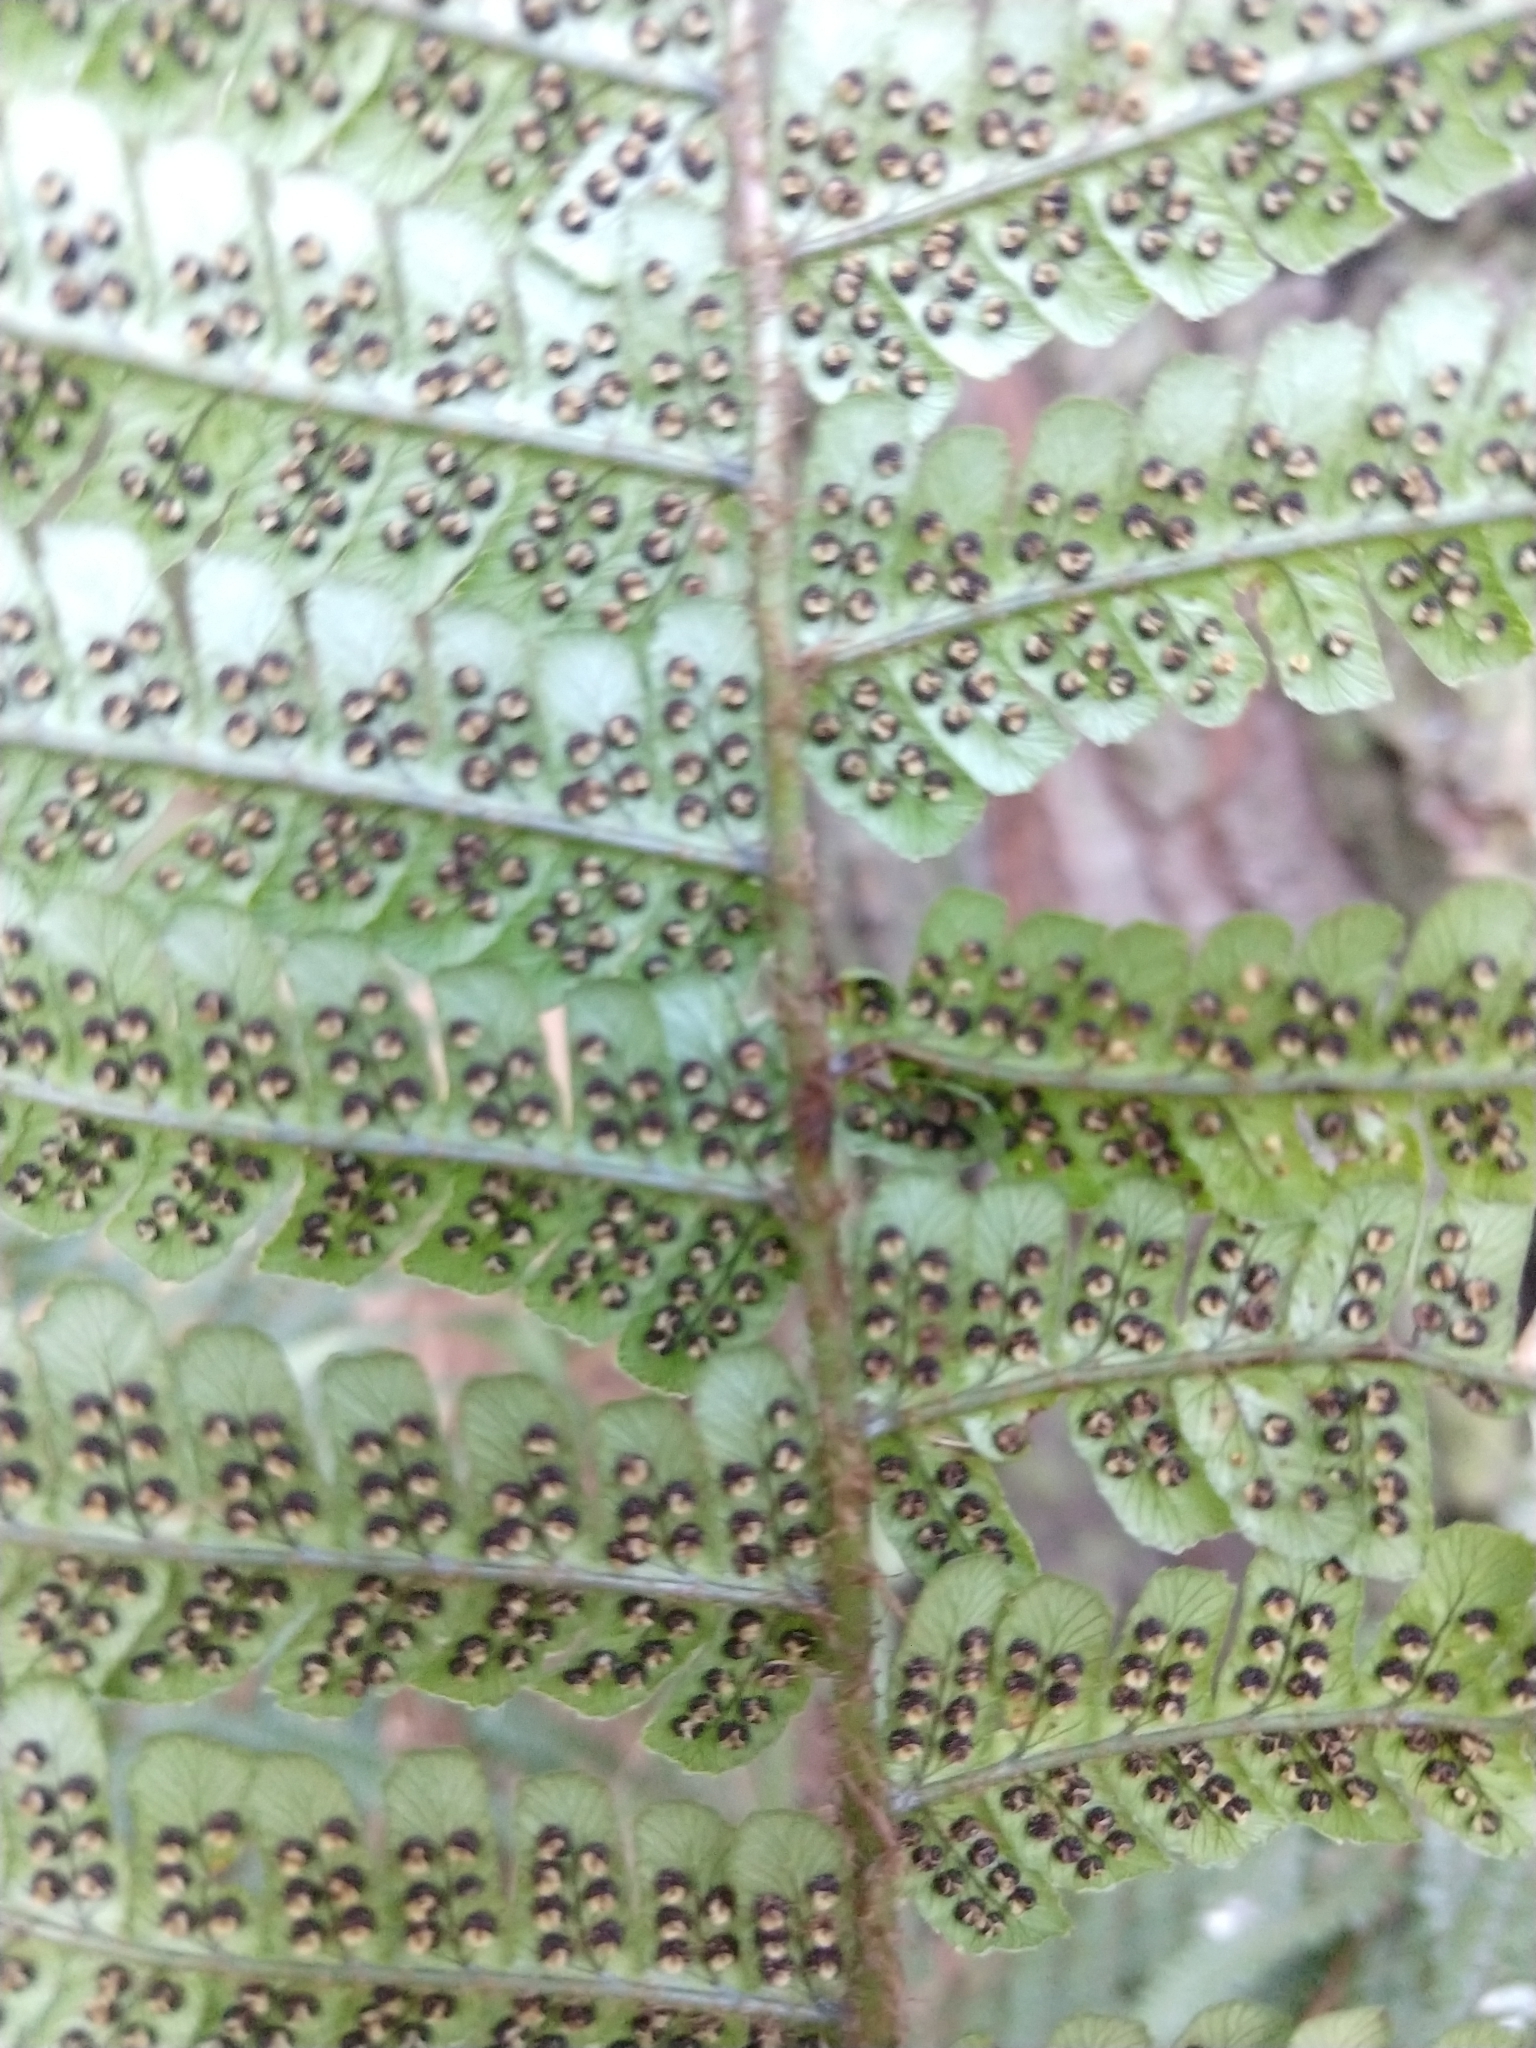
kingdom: Plantae
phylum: Tracheophyta
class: Polypodiopsida
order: Polypodiales
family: Dryopteridaceae
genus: Dryopteris
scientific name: Dryopteris wallichiana
